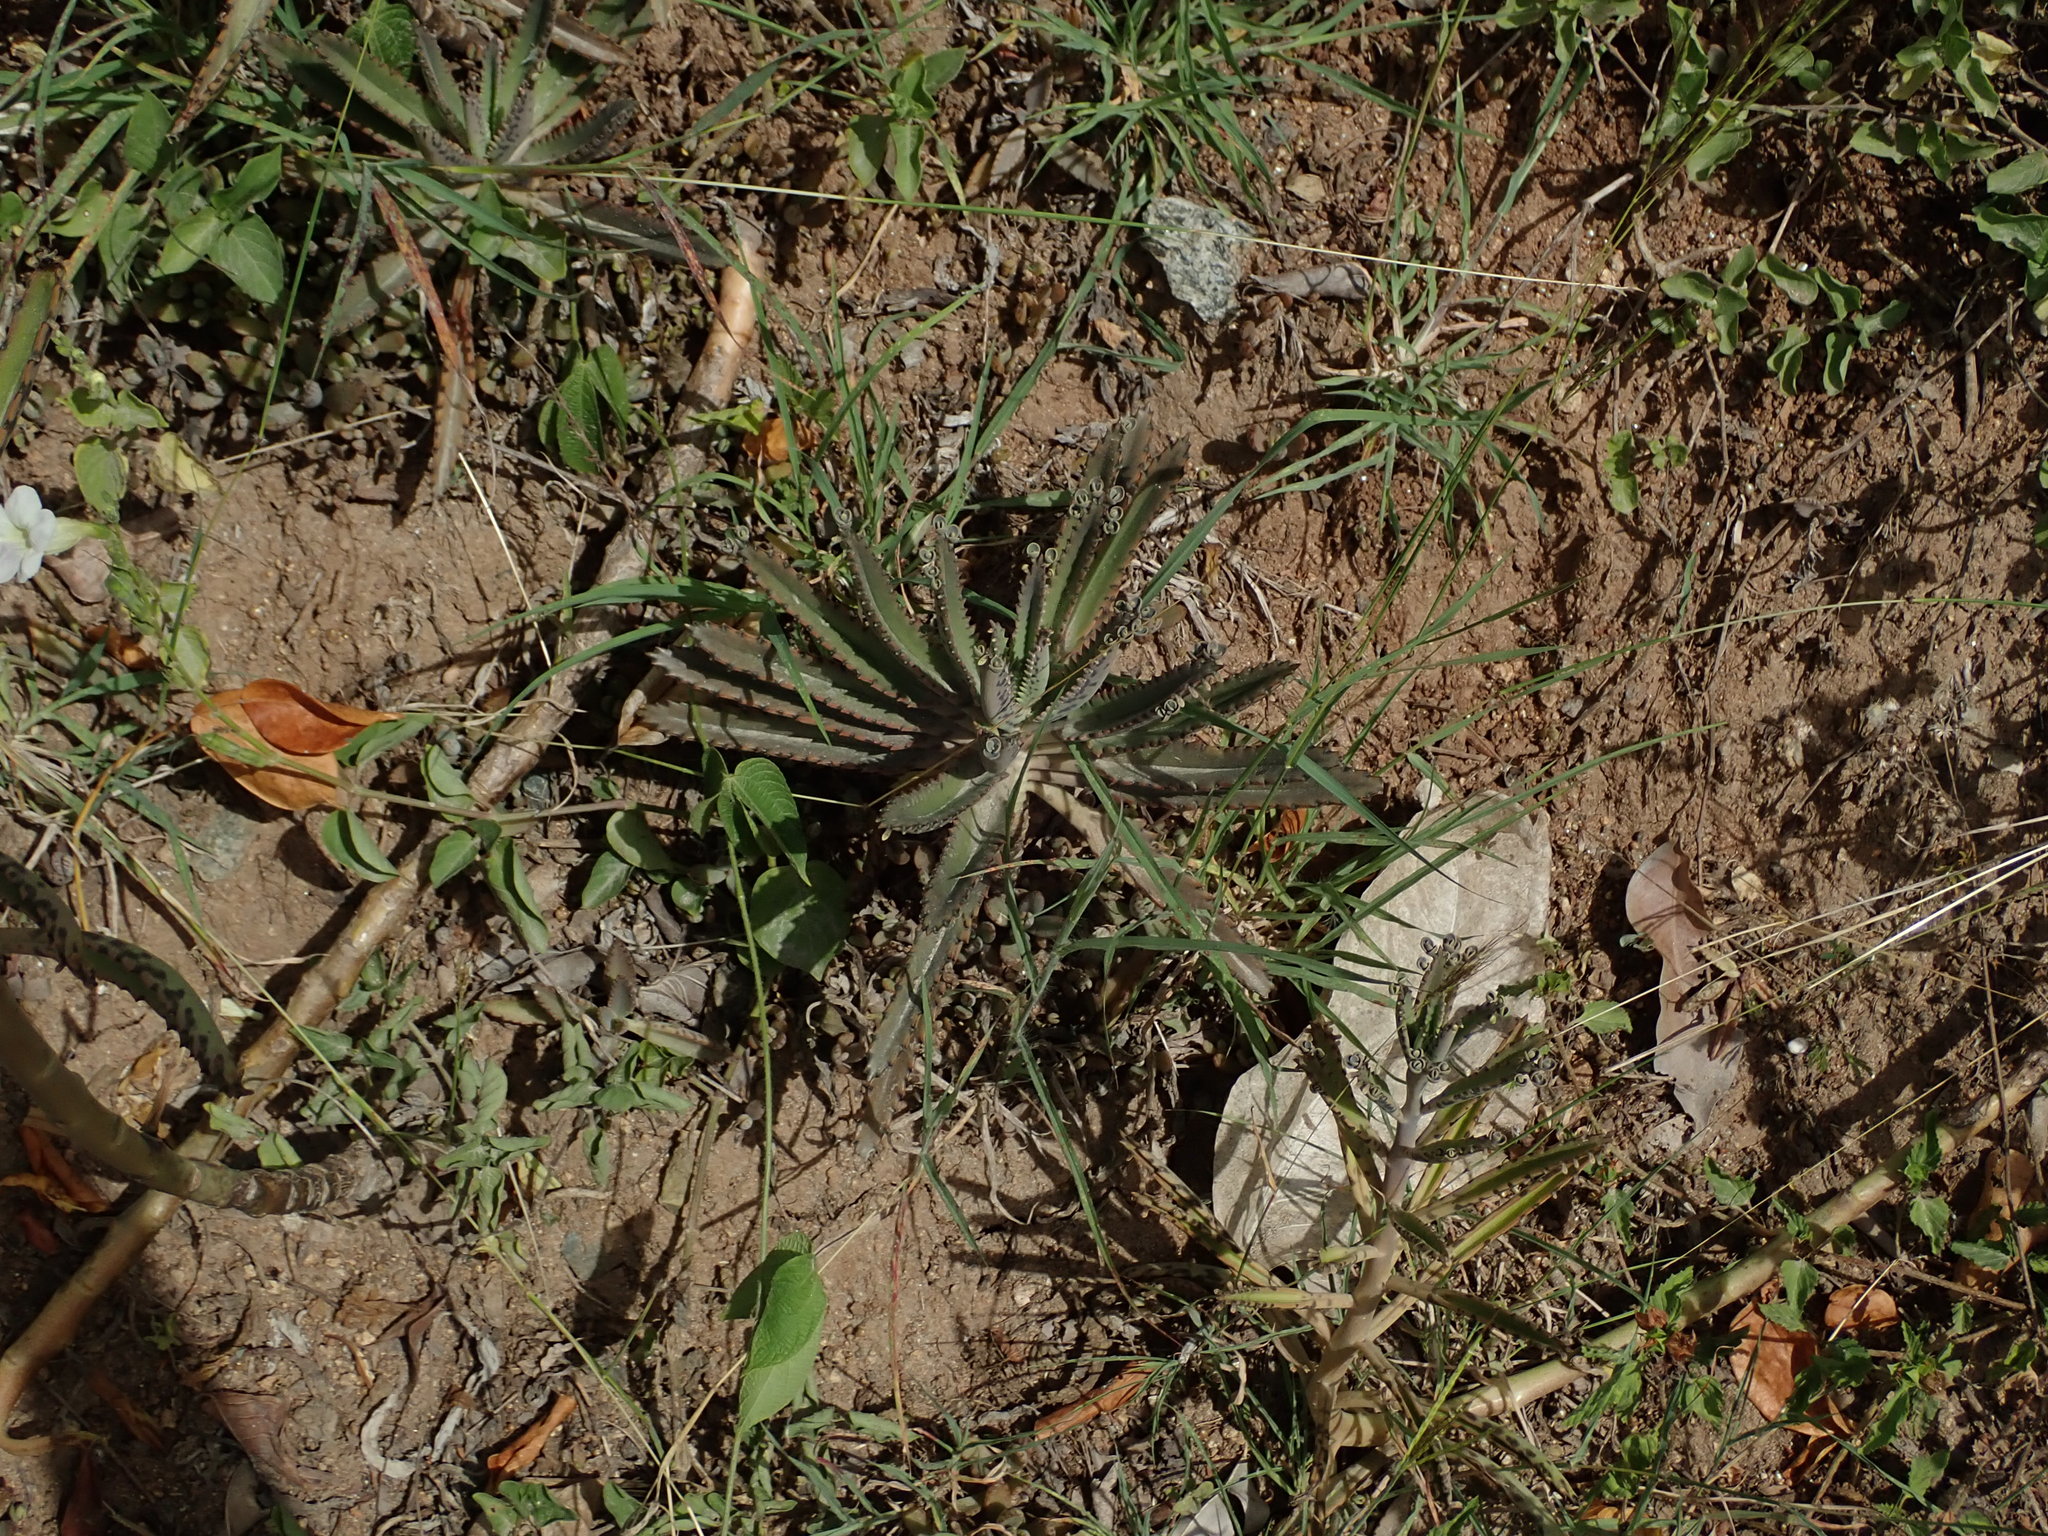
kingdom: Plantae
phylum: Tracheophyta
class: Magnoliopsida
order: Saxifragales
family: Crassulaceae
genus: Kalanchoe
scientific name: Kalanchoe houghtonii
